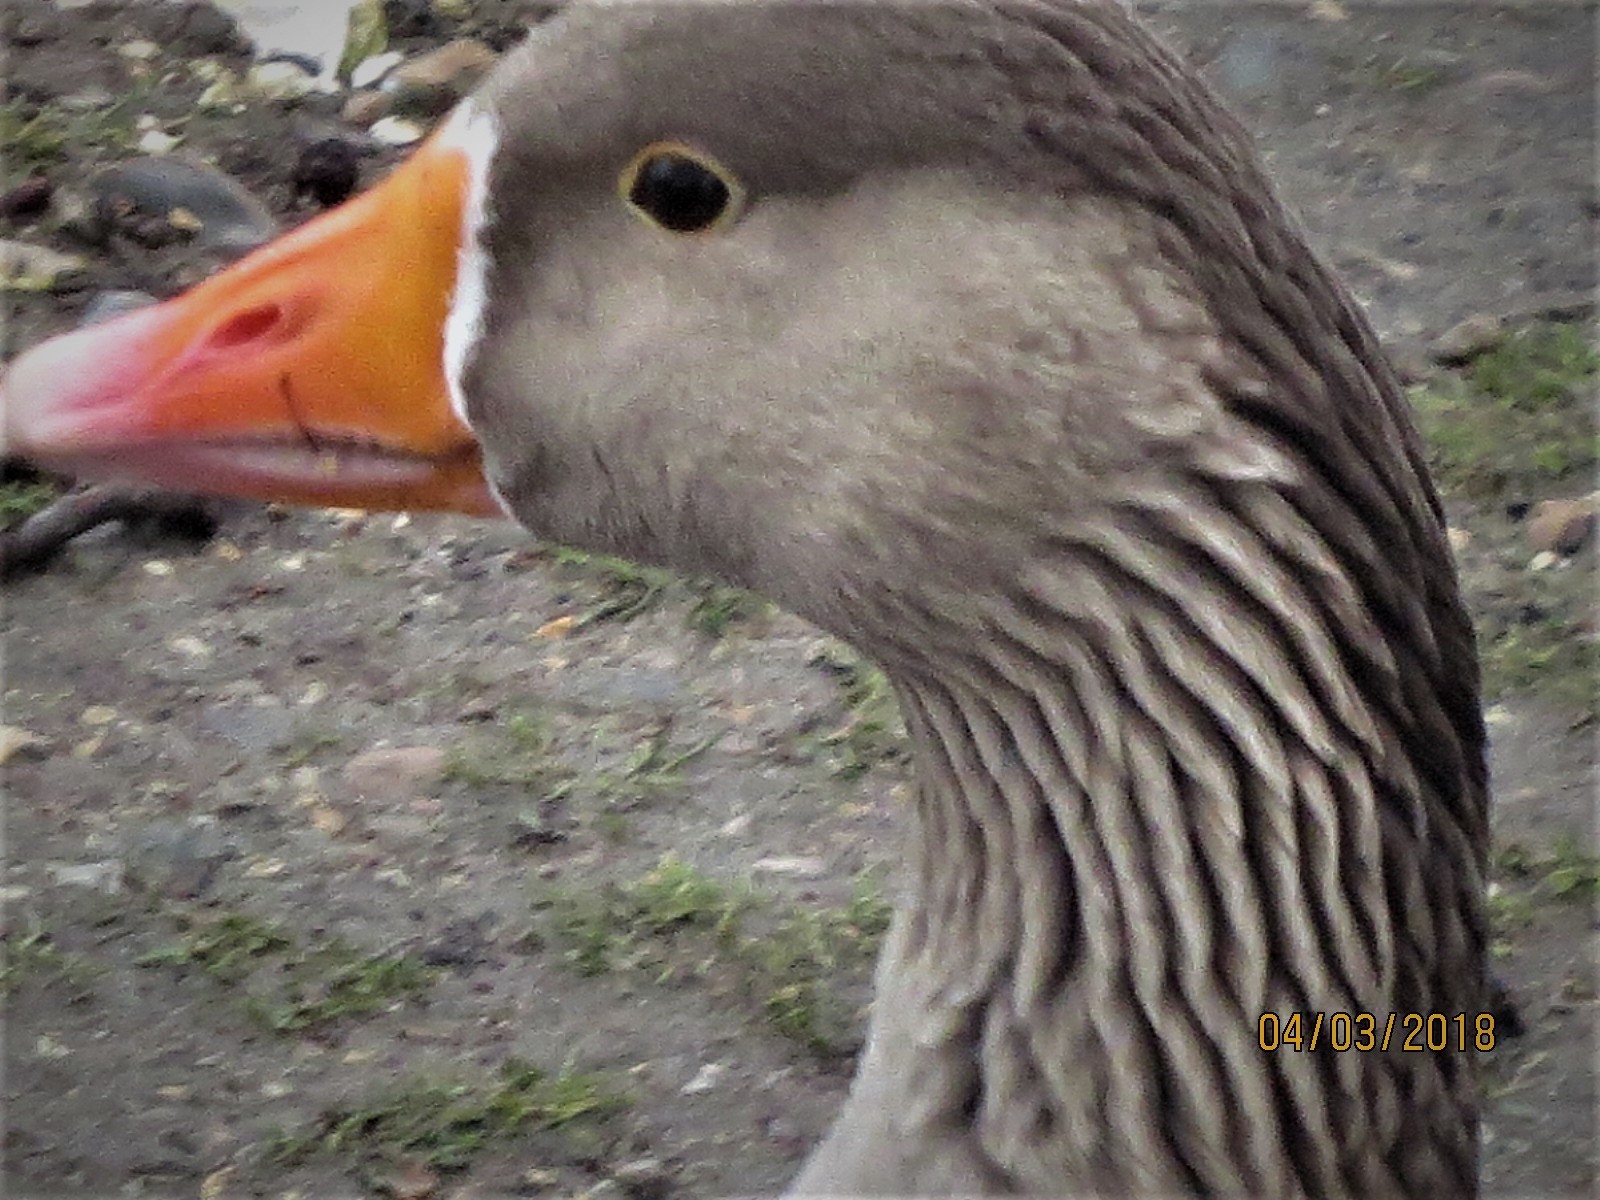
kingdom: Animalia
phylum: Chordata
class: Aves
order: Anseriformes
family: Anatidae
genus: Anser
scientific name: Anser anser
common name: Greylag goose
